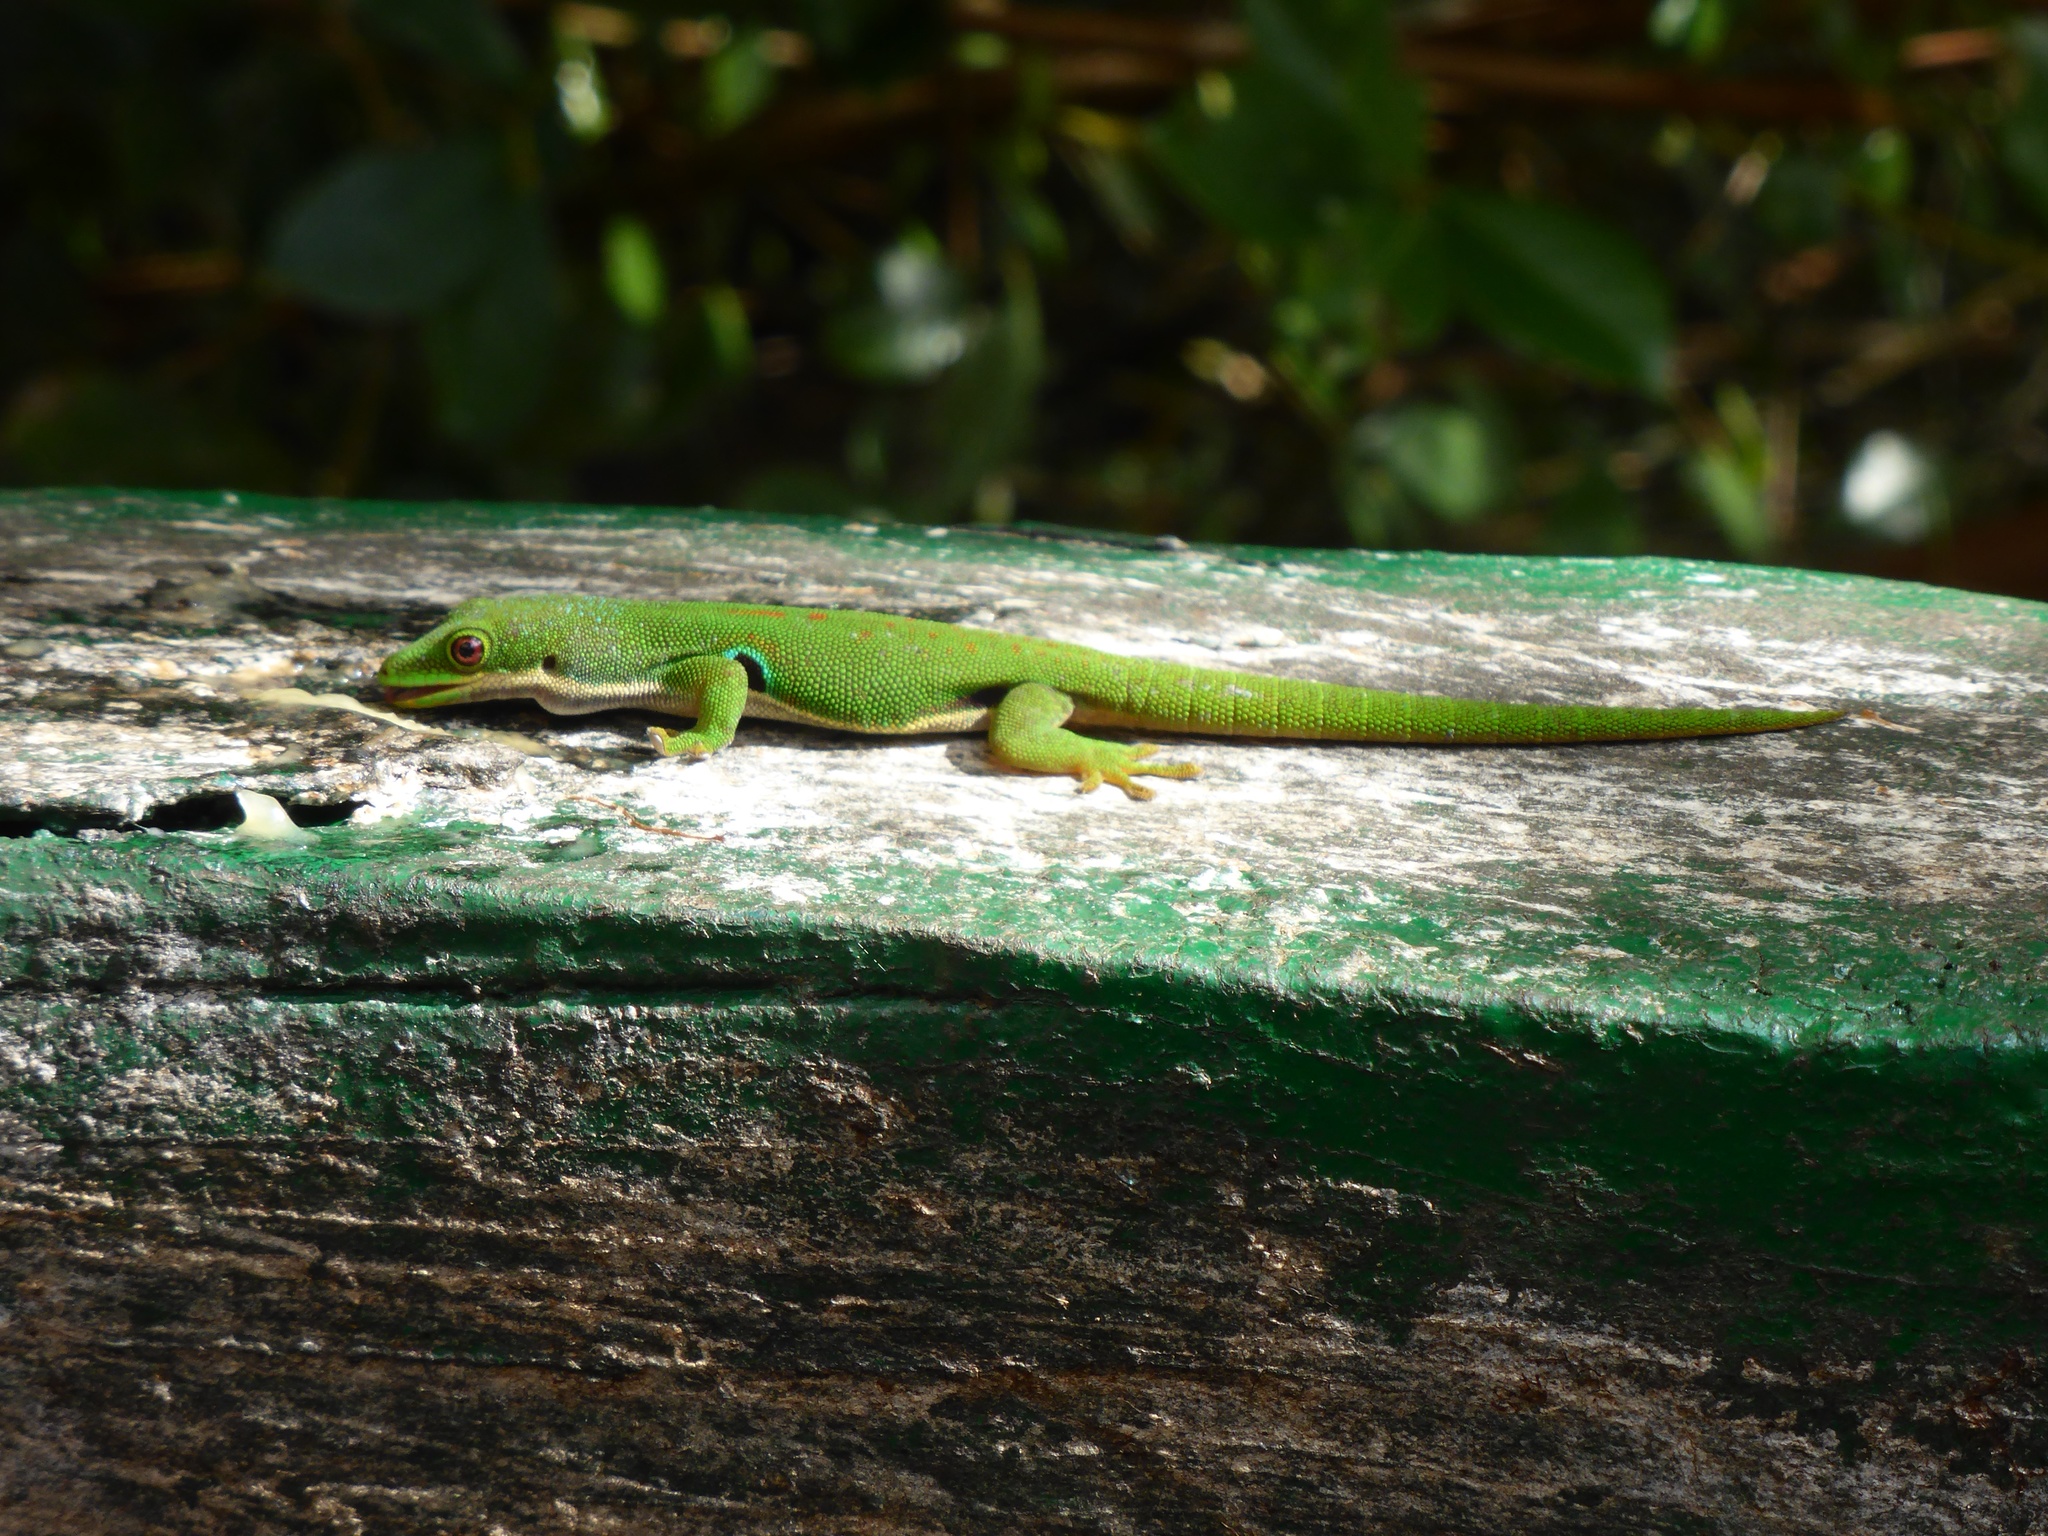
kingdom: Animalia
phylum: Chordata
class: Squamata
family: Gekkonidae
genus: Phelsuma
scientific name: Phelsuma quadriocellata
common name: Peacock day gecko
